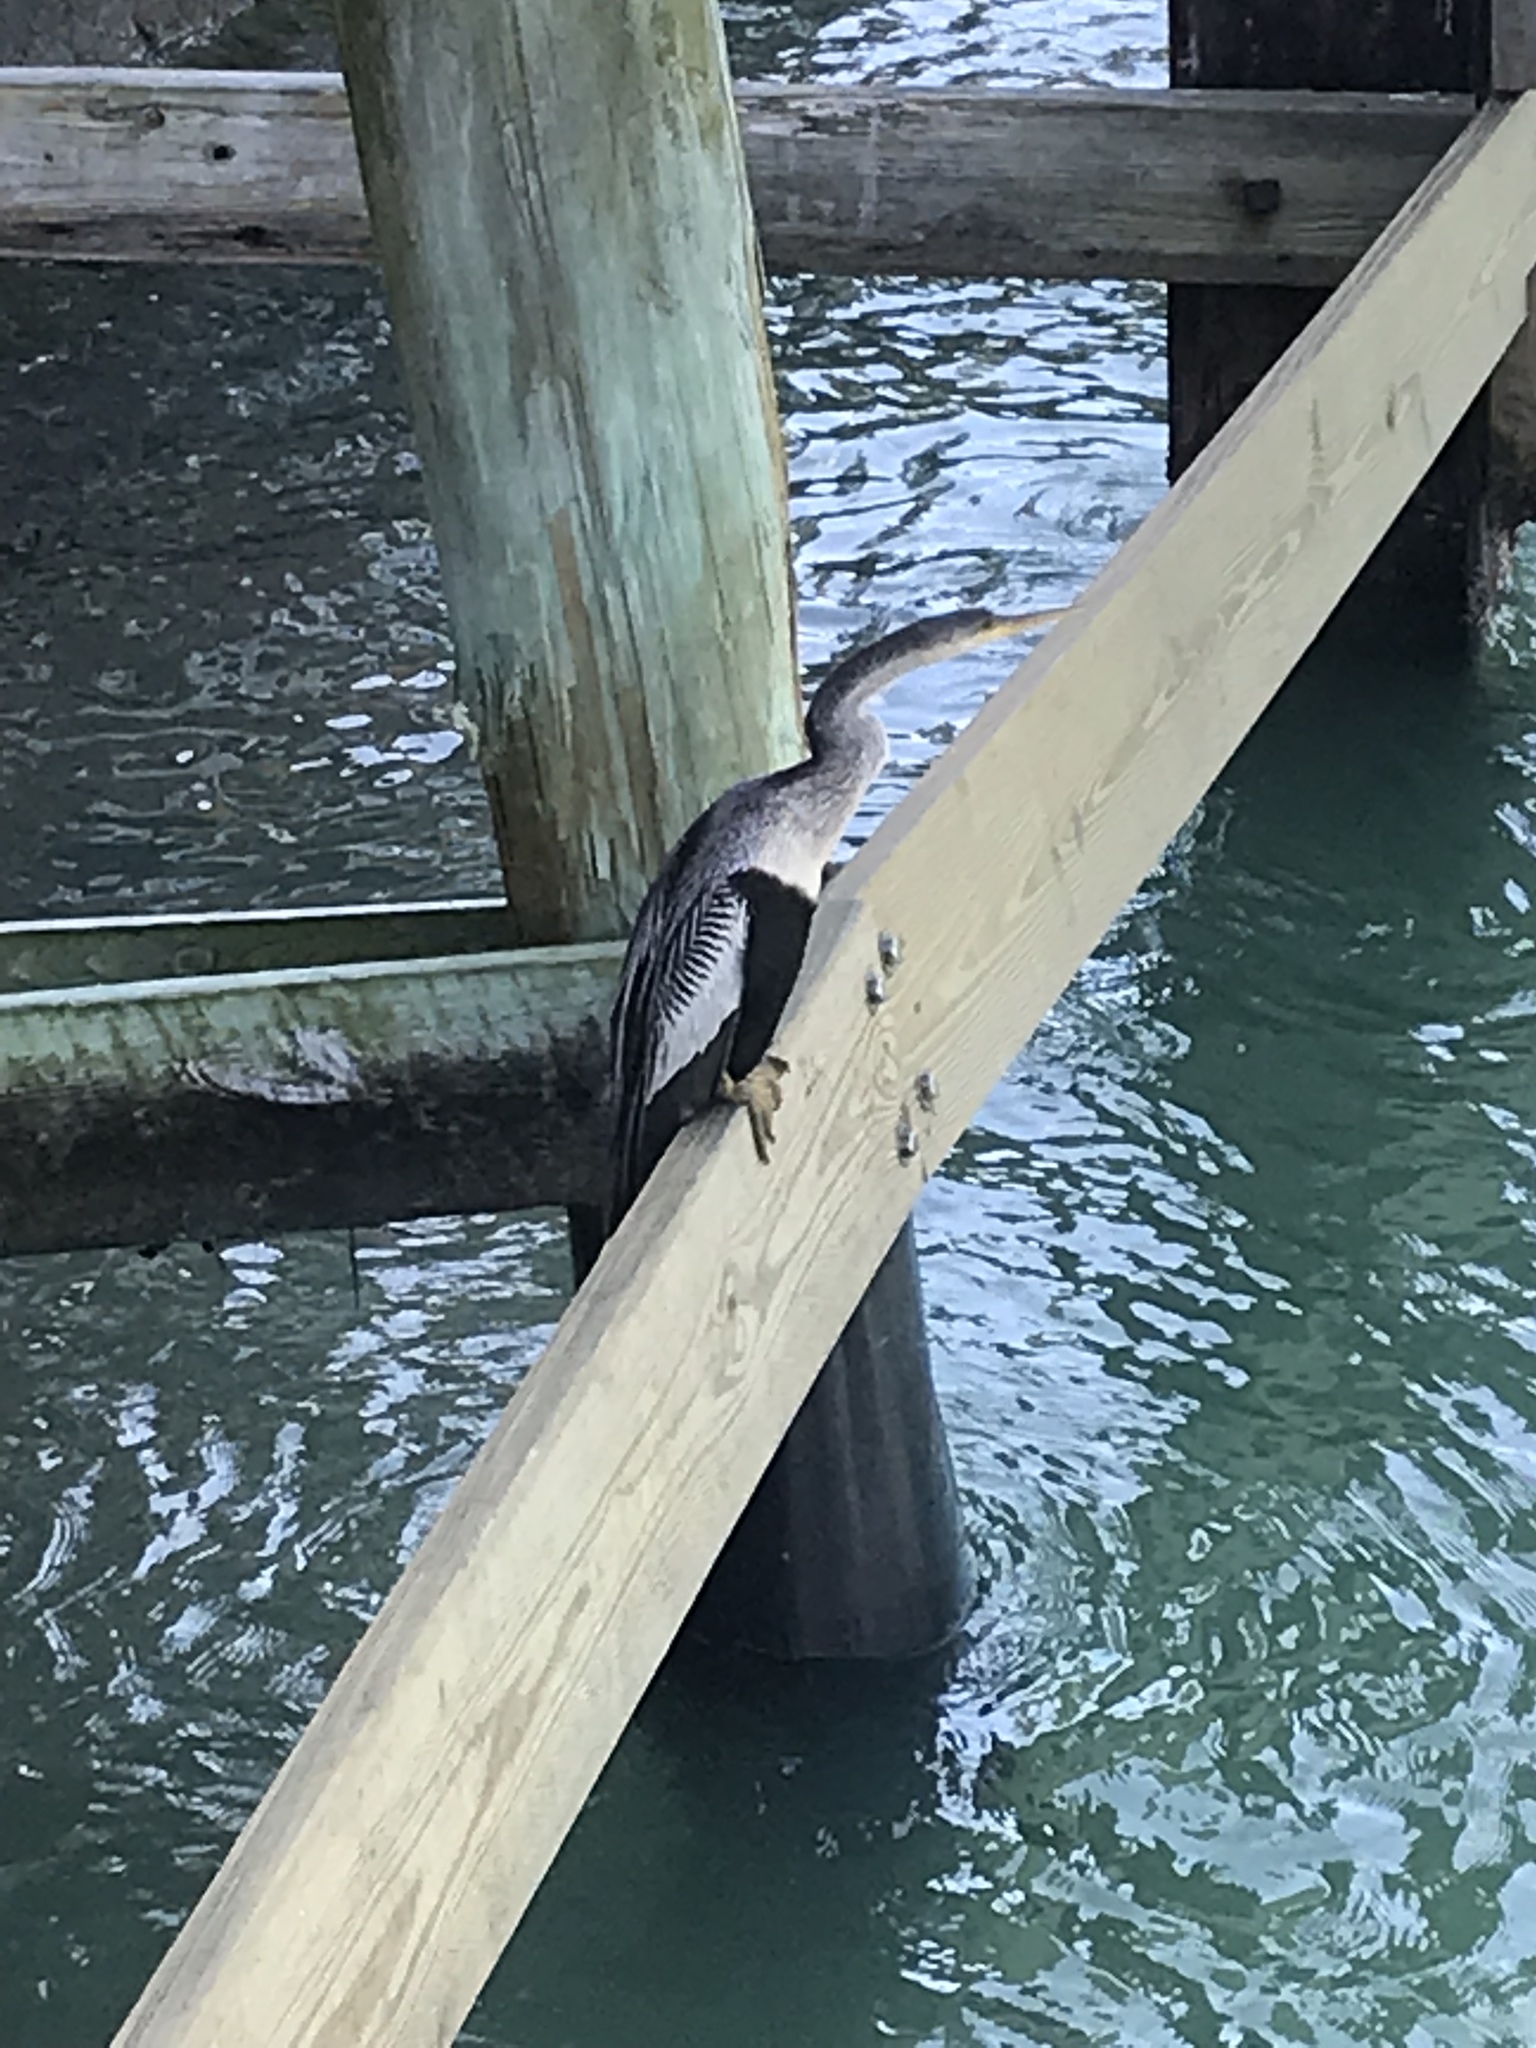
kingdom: Animalia
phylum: Chordata
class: Aves
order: Suliformes
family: Anhingidae
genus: Anhinga
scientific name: Anhinga anhinga
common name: Anhinga
